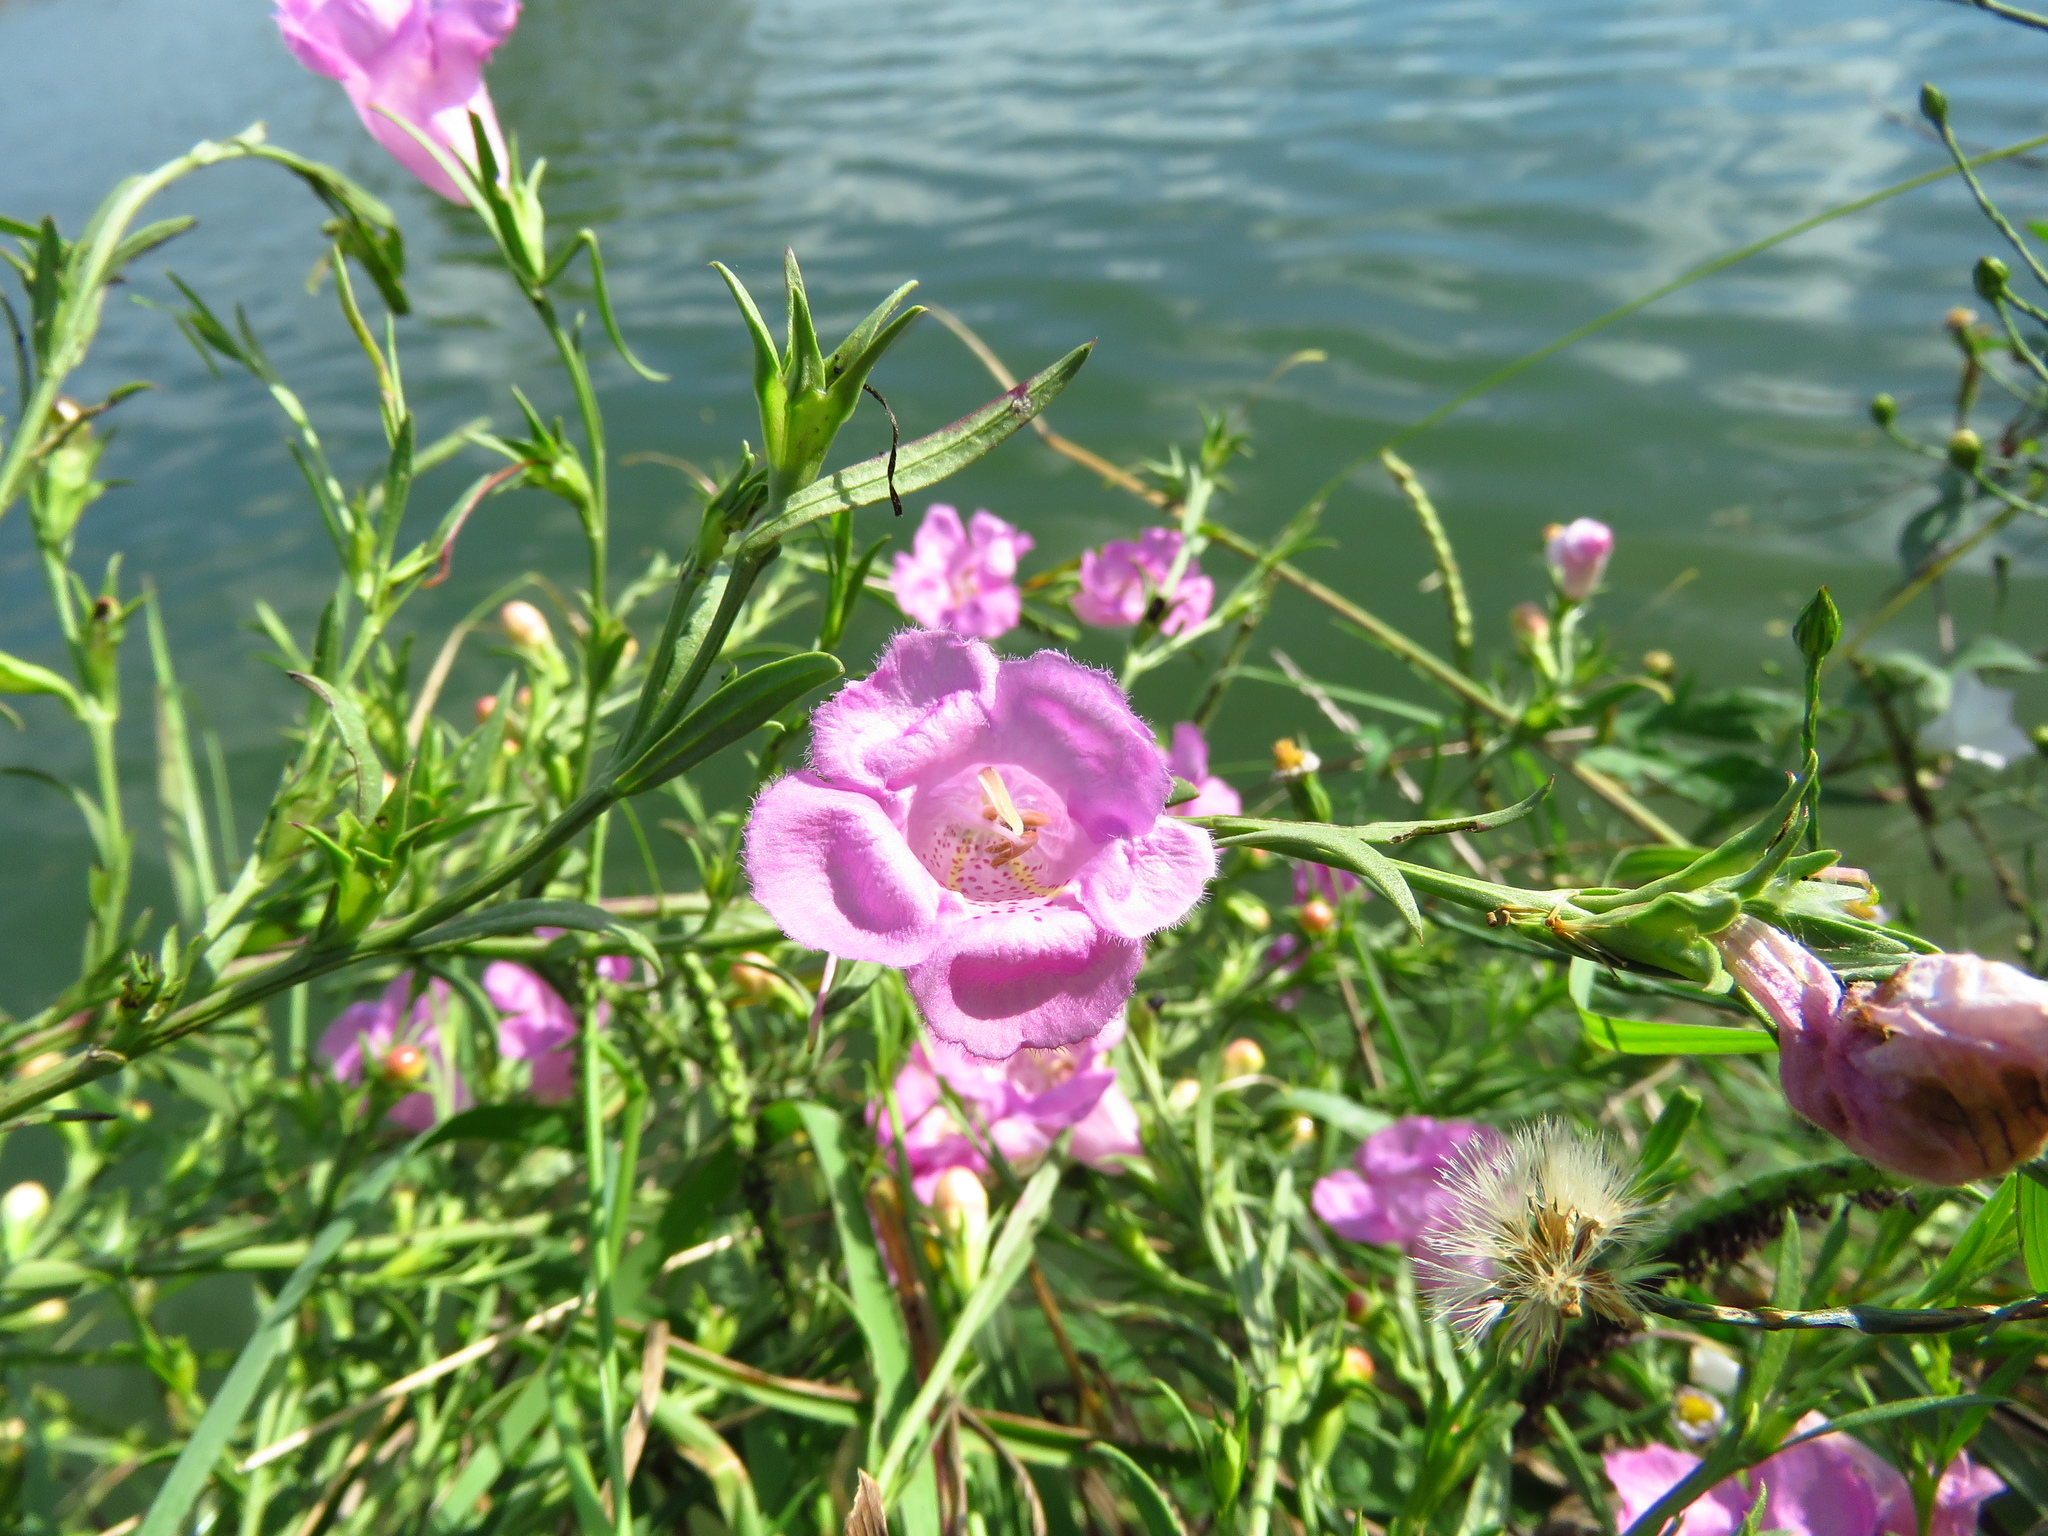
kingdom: Plantae
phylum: Tracheophyta
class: Magnoliopsida
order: Lamiales
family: Orobanchaceae
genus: Agalinis
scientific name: Agalinis heterophylla
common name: Prairie agalinis
